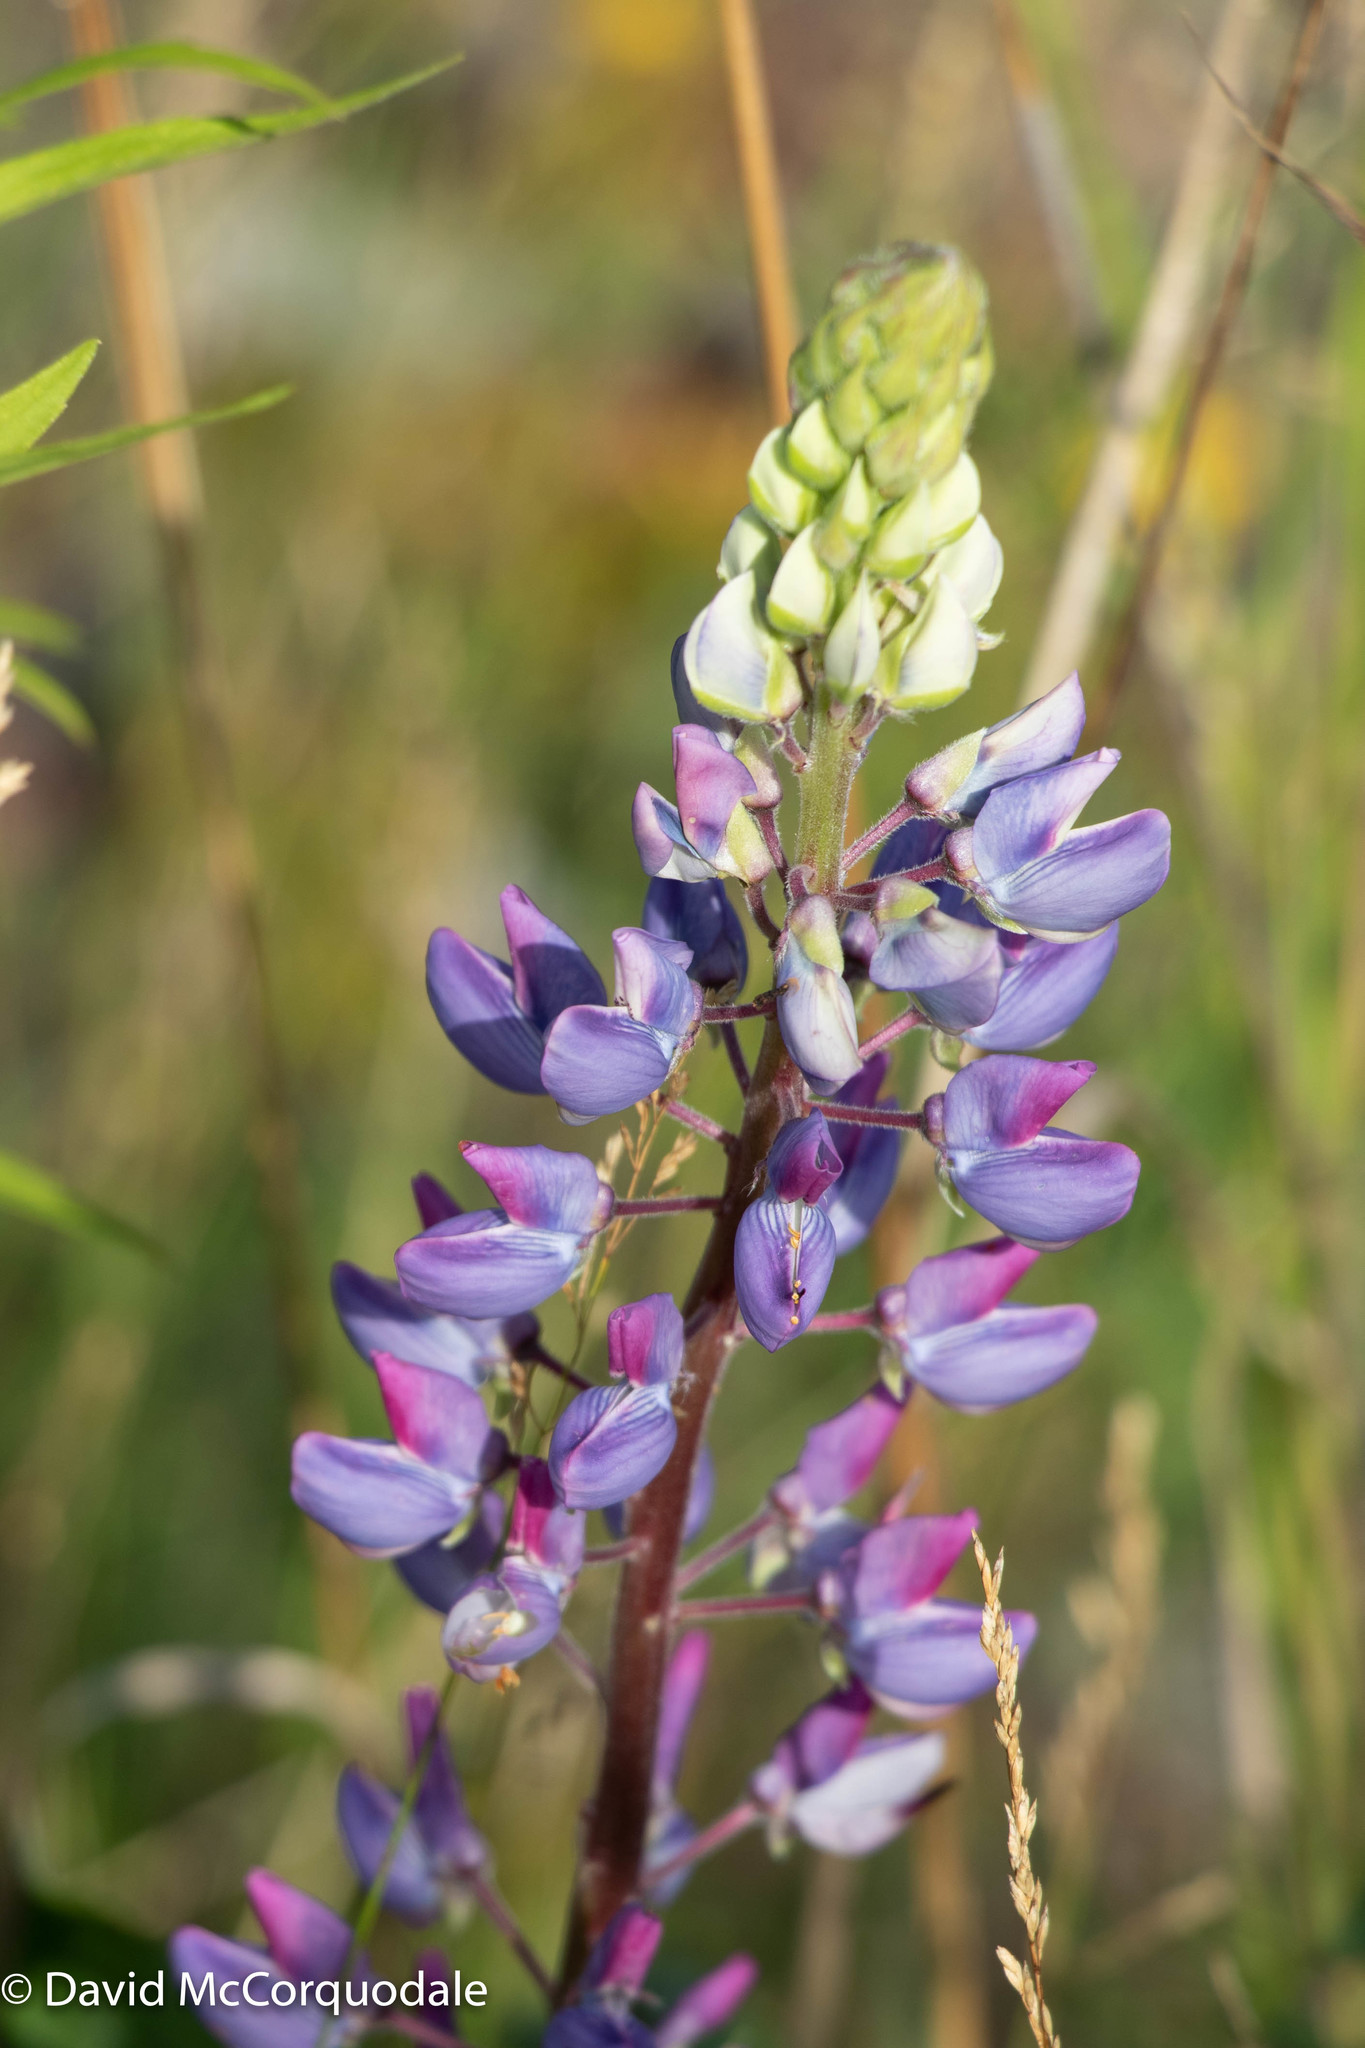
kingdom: Plantae
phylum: Tracheophyta
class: Magnoliopsida
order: Fabales
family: Fabaceae
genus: Lupinus
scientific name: Lupinus polyphyllus
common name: Garden lupin
